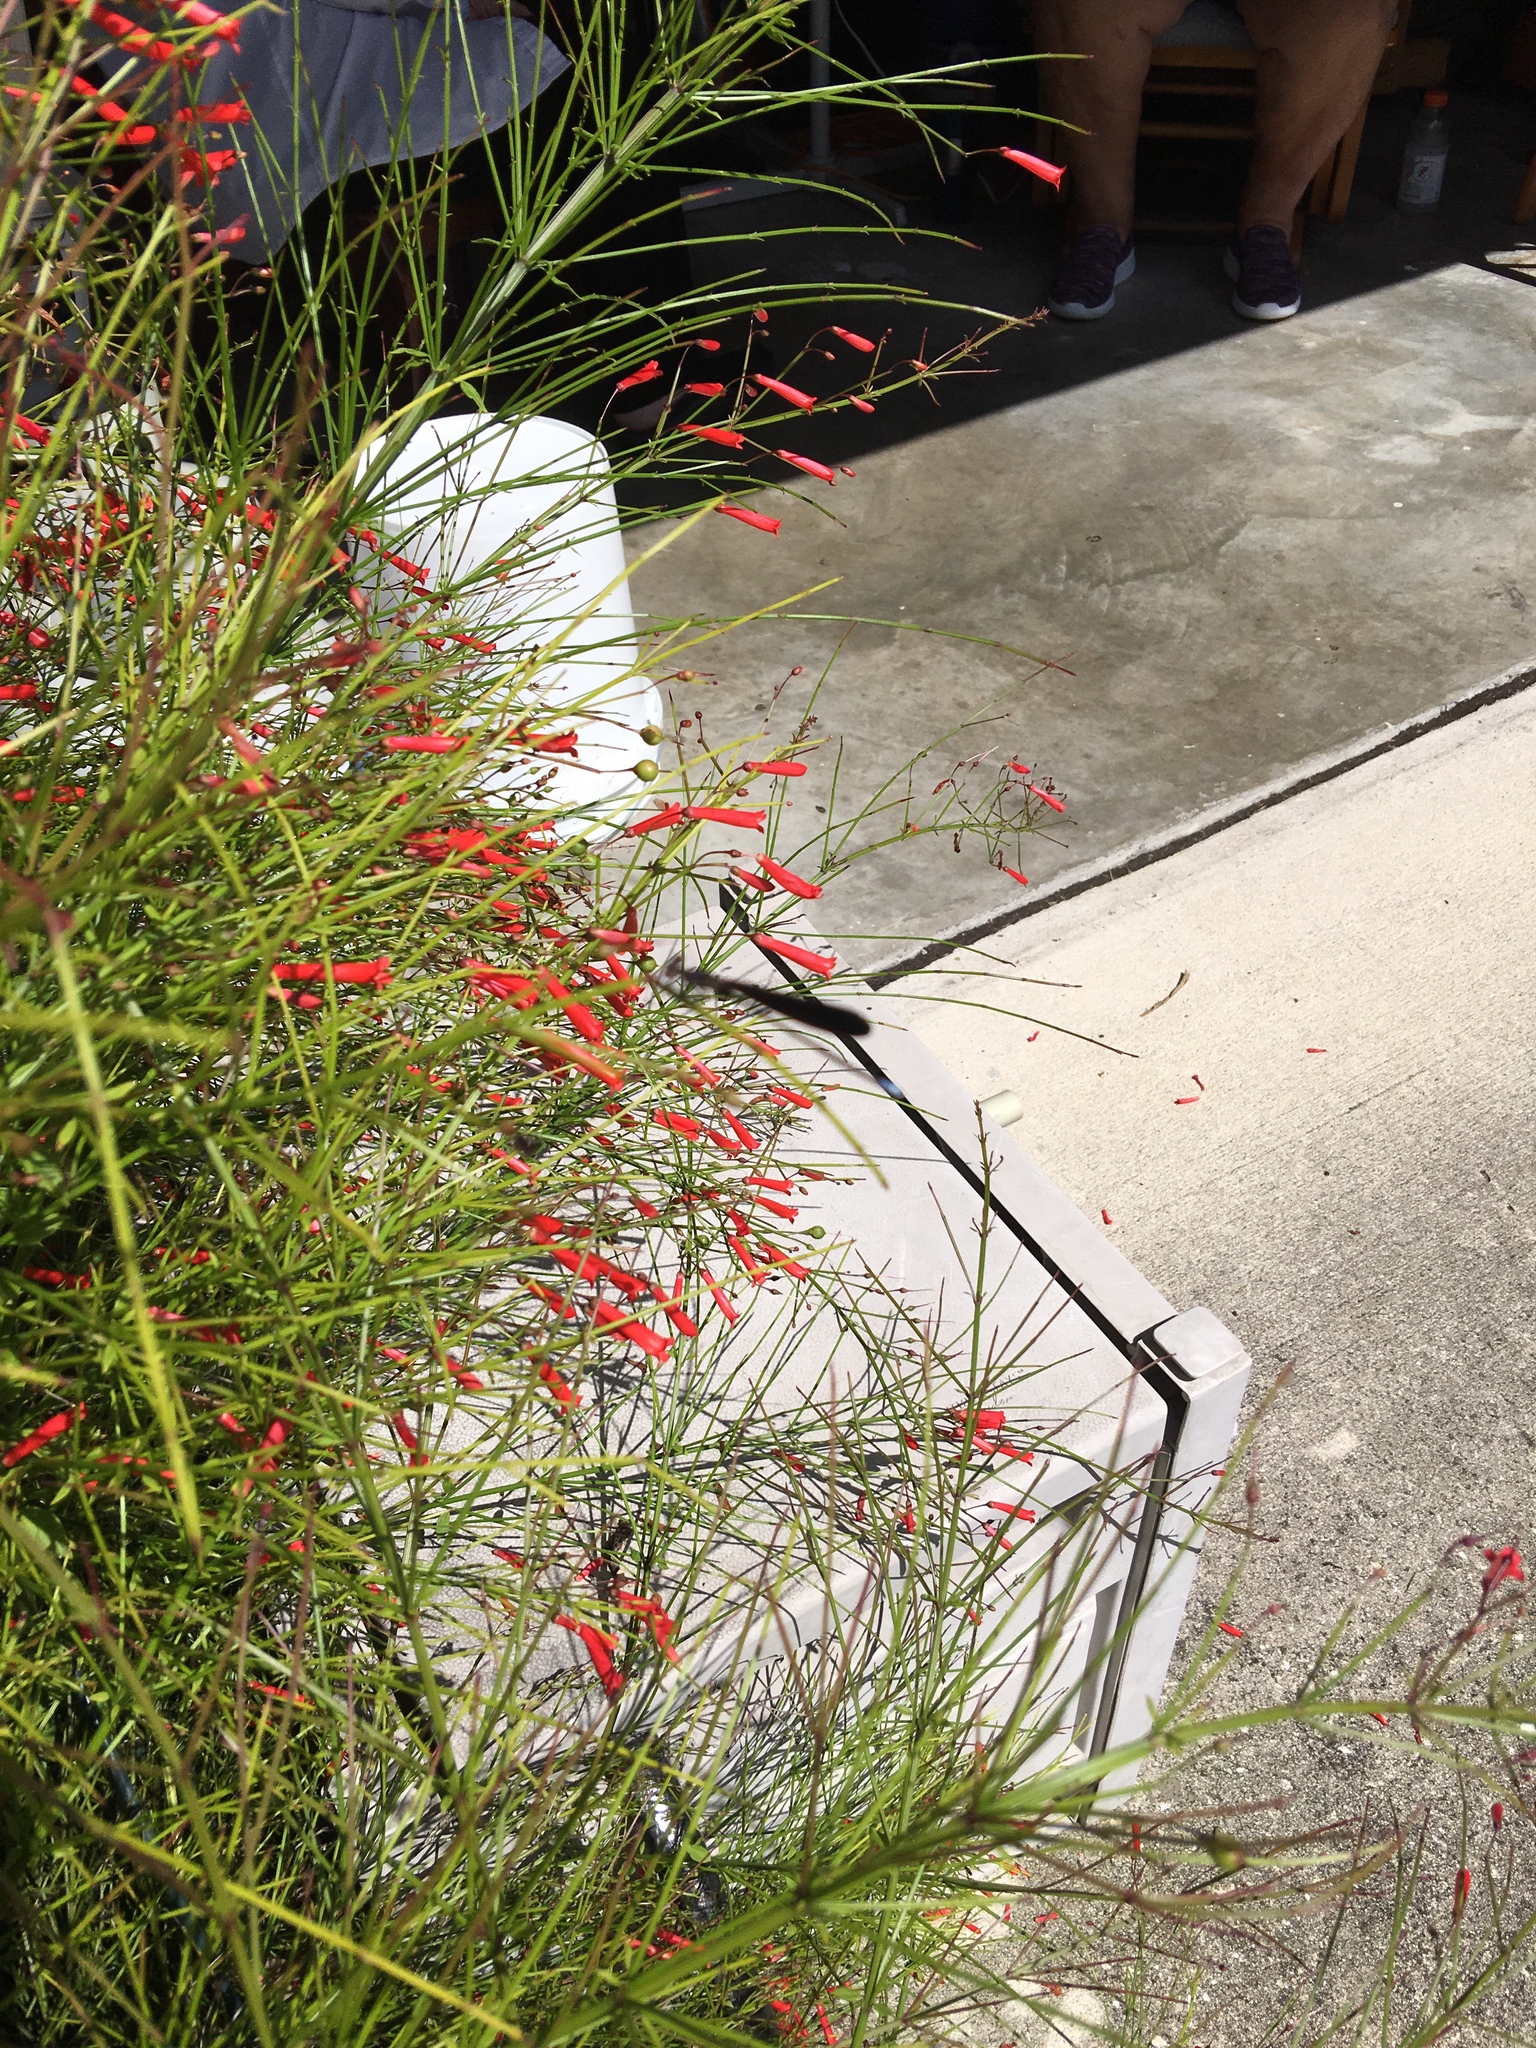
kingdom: Animalia
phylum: Arthropoda
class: Insecta
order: Odonata
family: Coenagrionidae
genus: Argia
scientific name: Argia fumipennis
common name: Variable dancer
